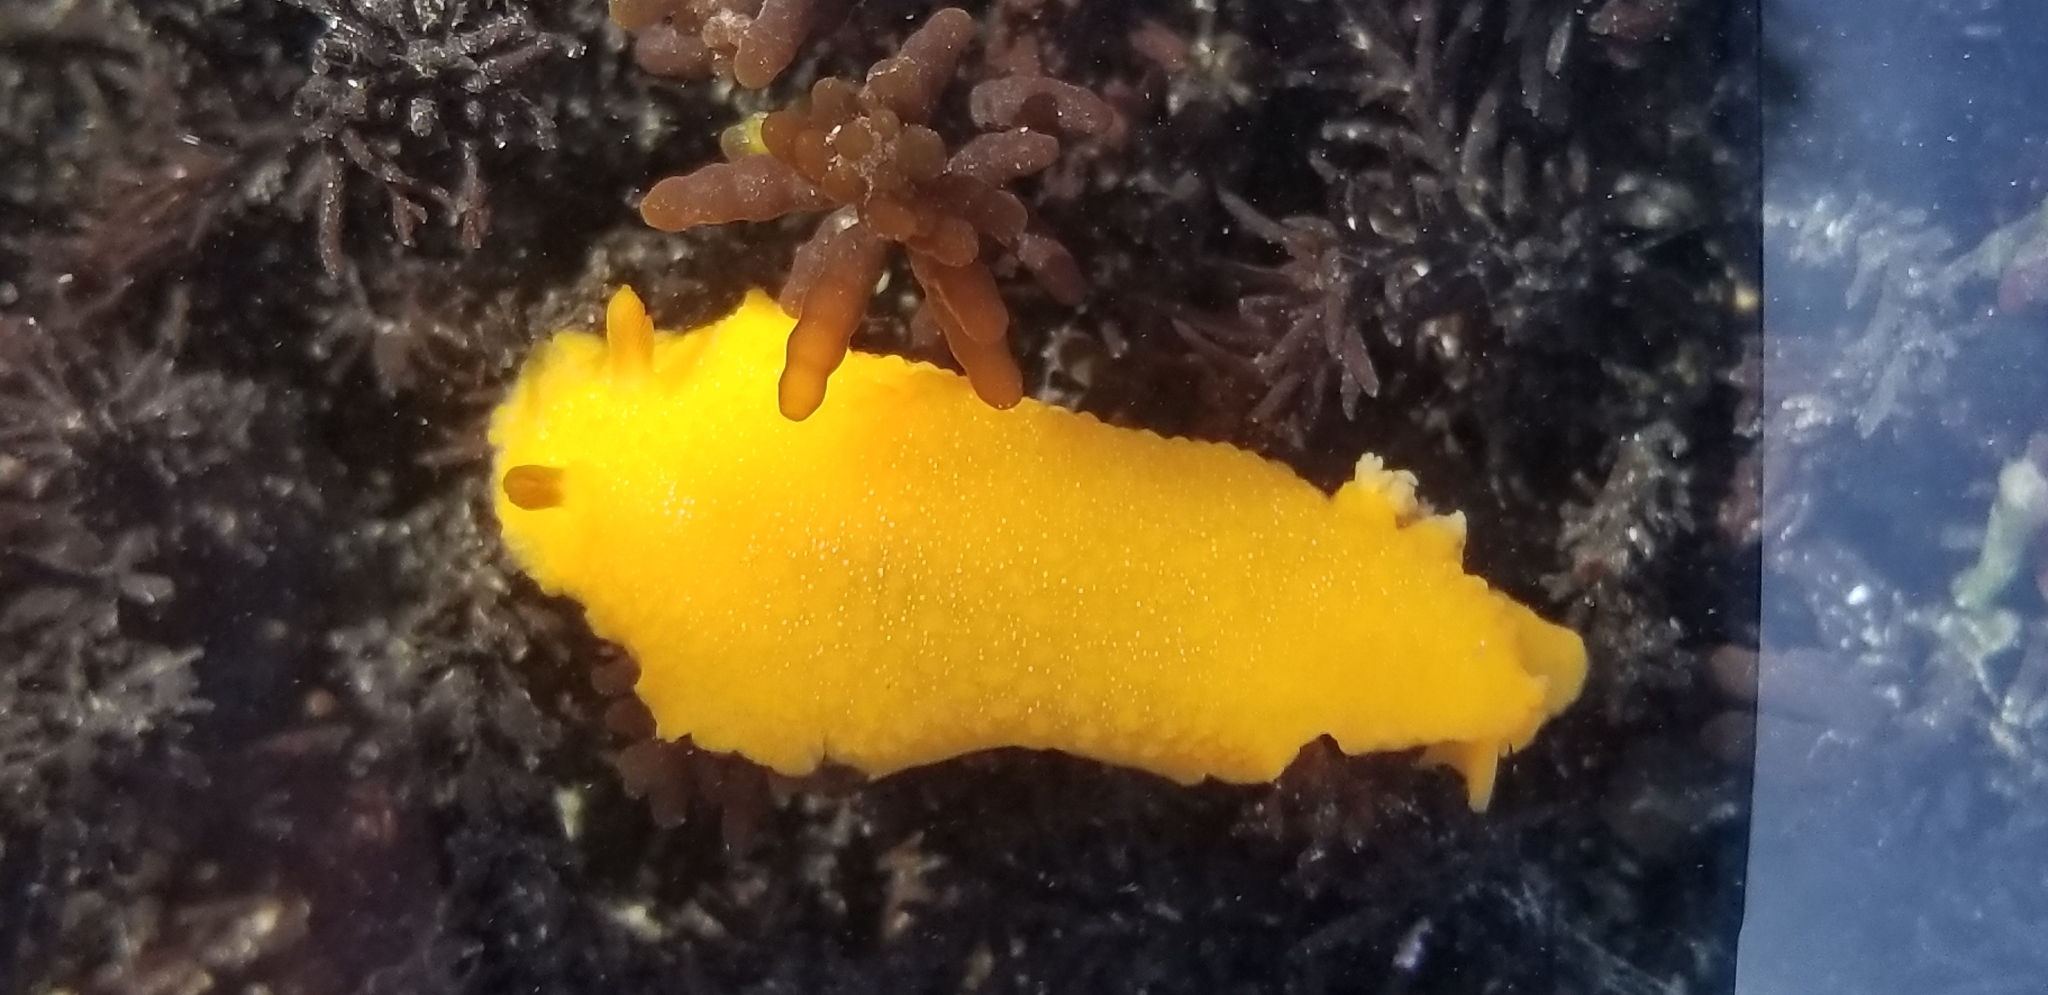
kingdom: Animalia
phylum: Mollusca
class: Gastropoda
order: Nudibranchia
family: Dendrodorididae
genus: Doriopsilla
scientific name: Doriopsilla albopunctata
